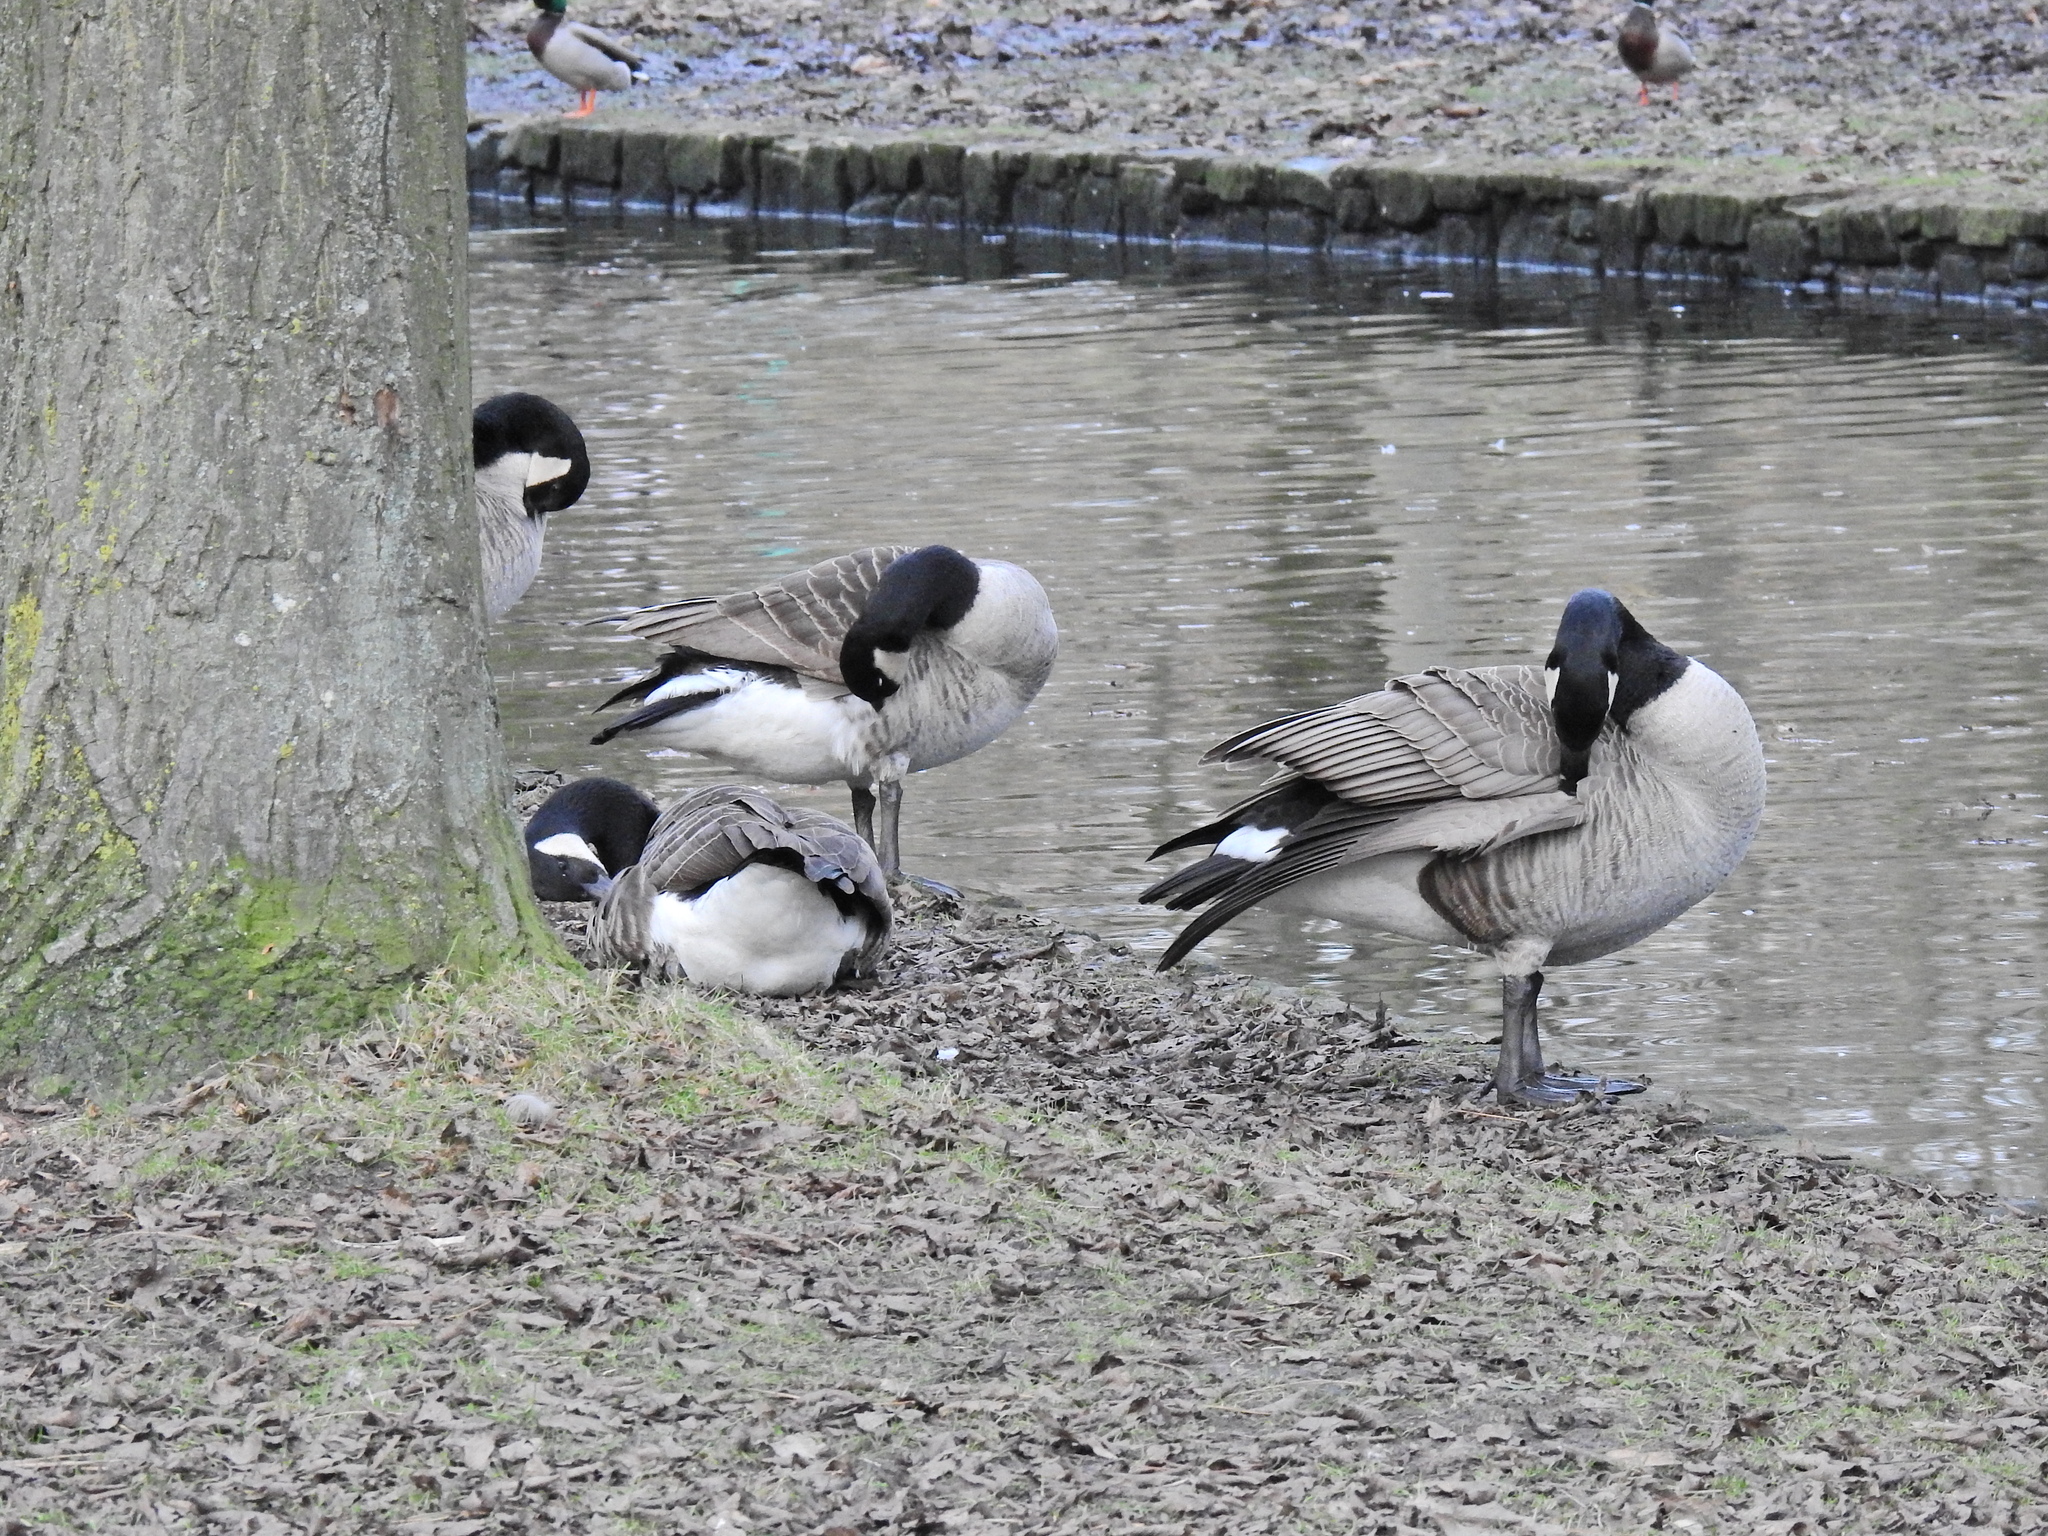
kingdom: Animalia
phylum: Chordata
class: Aves
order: Anseriformes
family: Anatidae
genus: Branta
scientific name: Branta canadensis
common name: Canada goose
